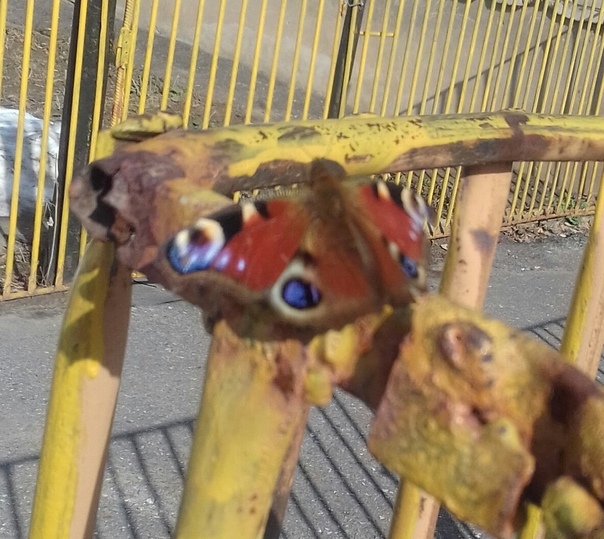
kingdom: Animalia
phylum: Arthropoda
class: Insecta
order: Lepidoptera
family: Nymphalidae
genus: Aglais
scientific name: Aglais io
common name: Peacock
